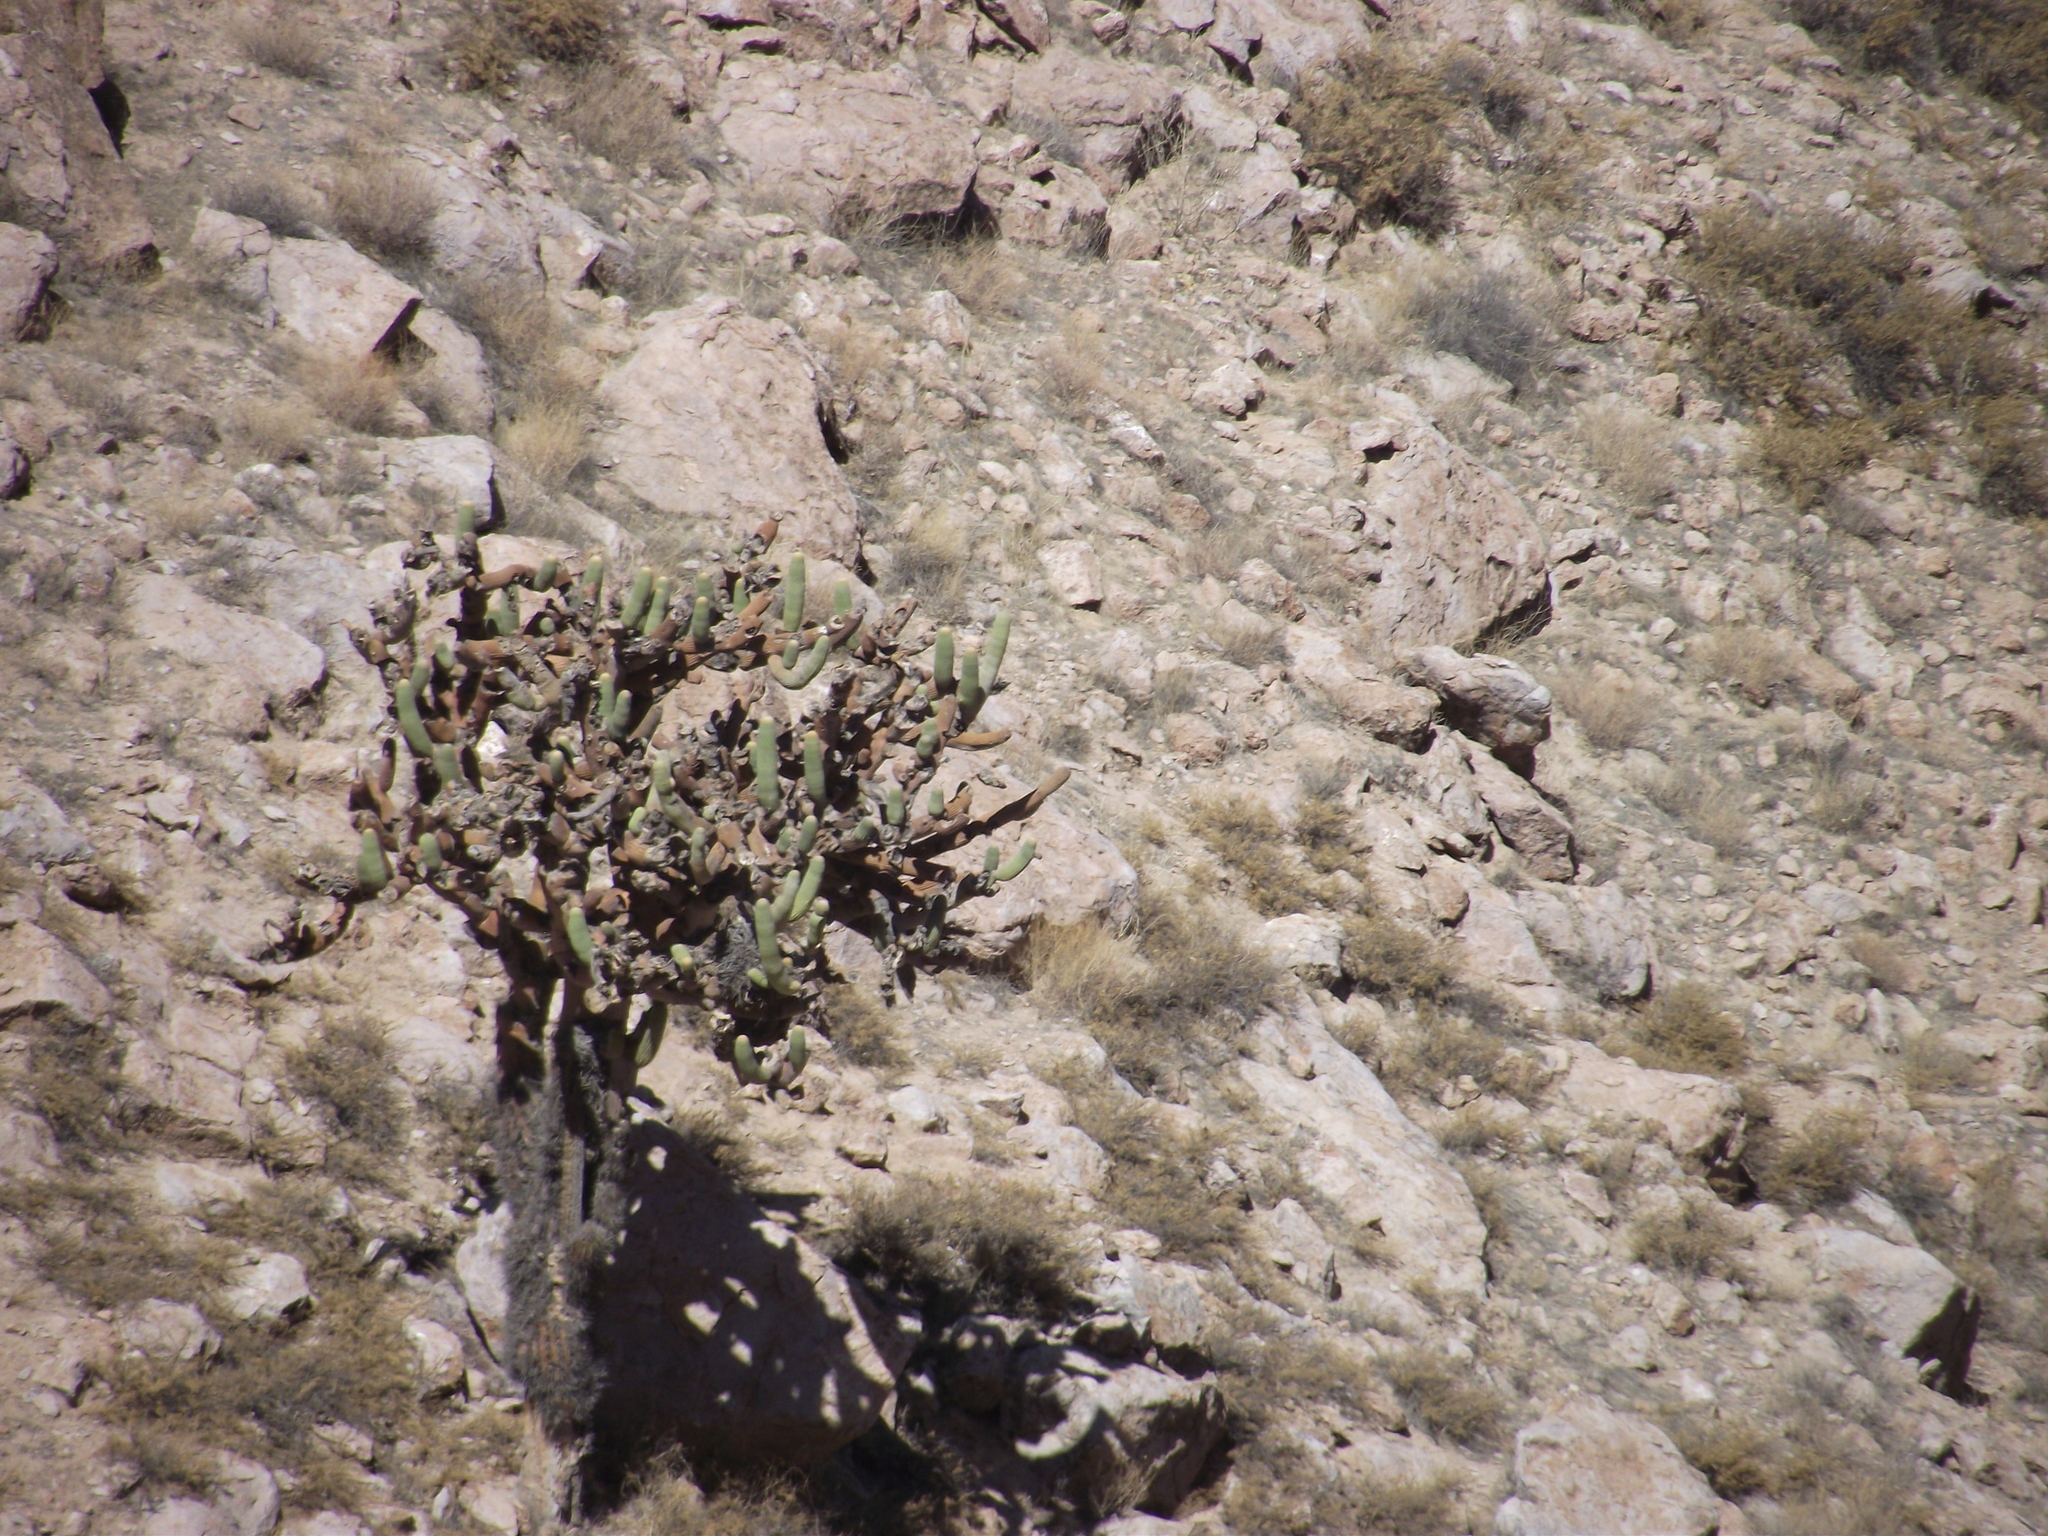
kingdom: Plantae
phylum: Tracheophyta
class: Magnoliopsida
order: Caryophyllales
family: Cactaceae
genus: Browningia
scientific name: Browningia candelaris
